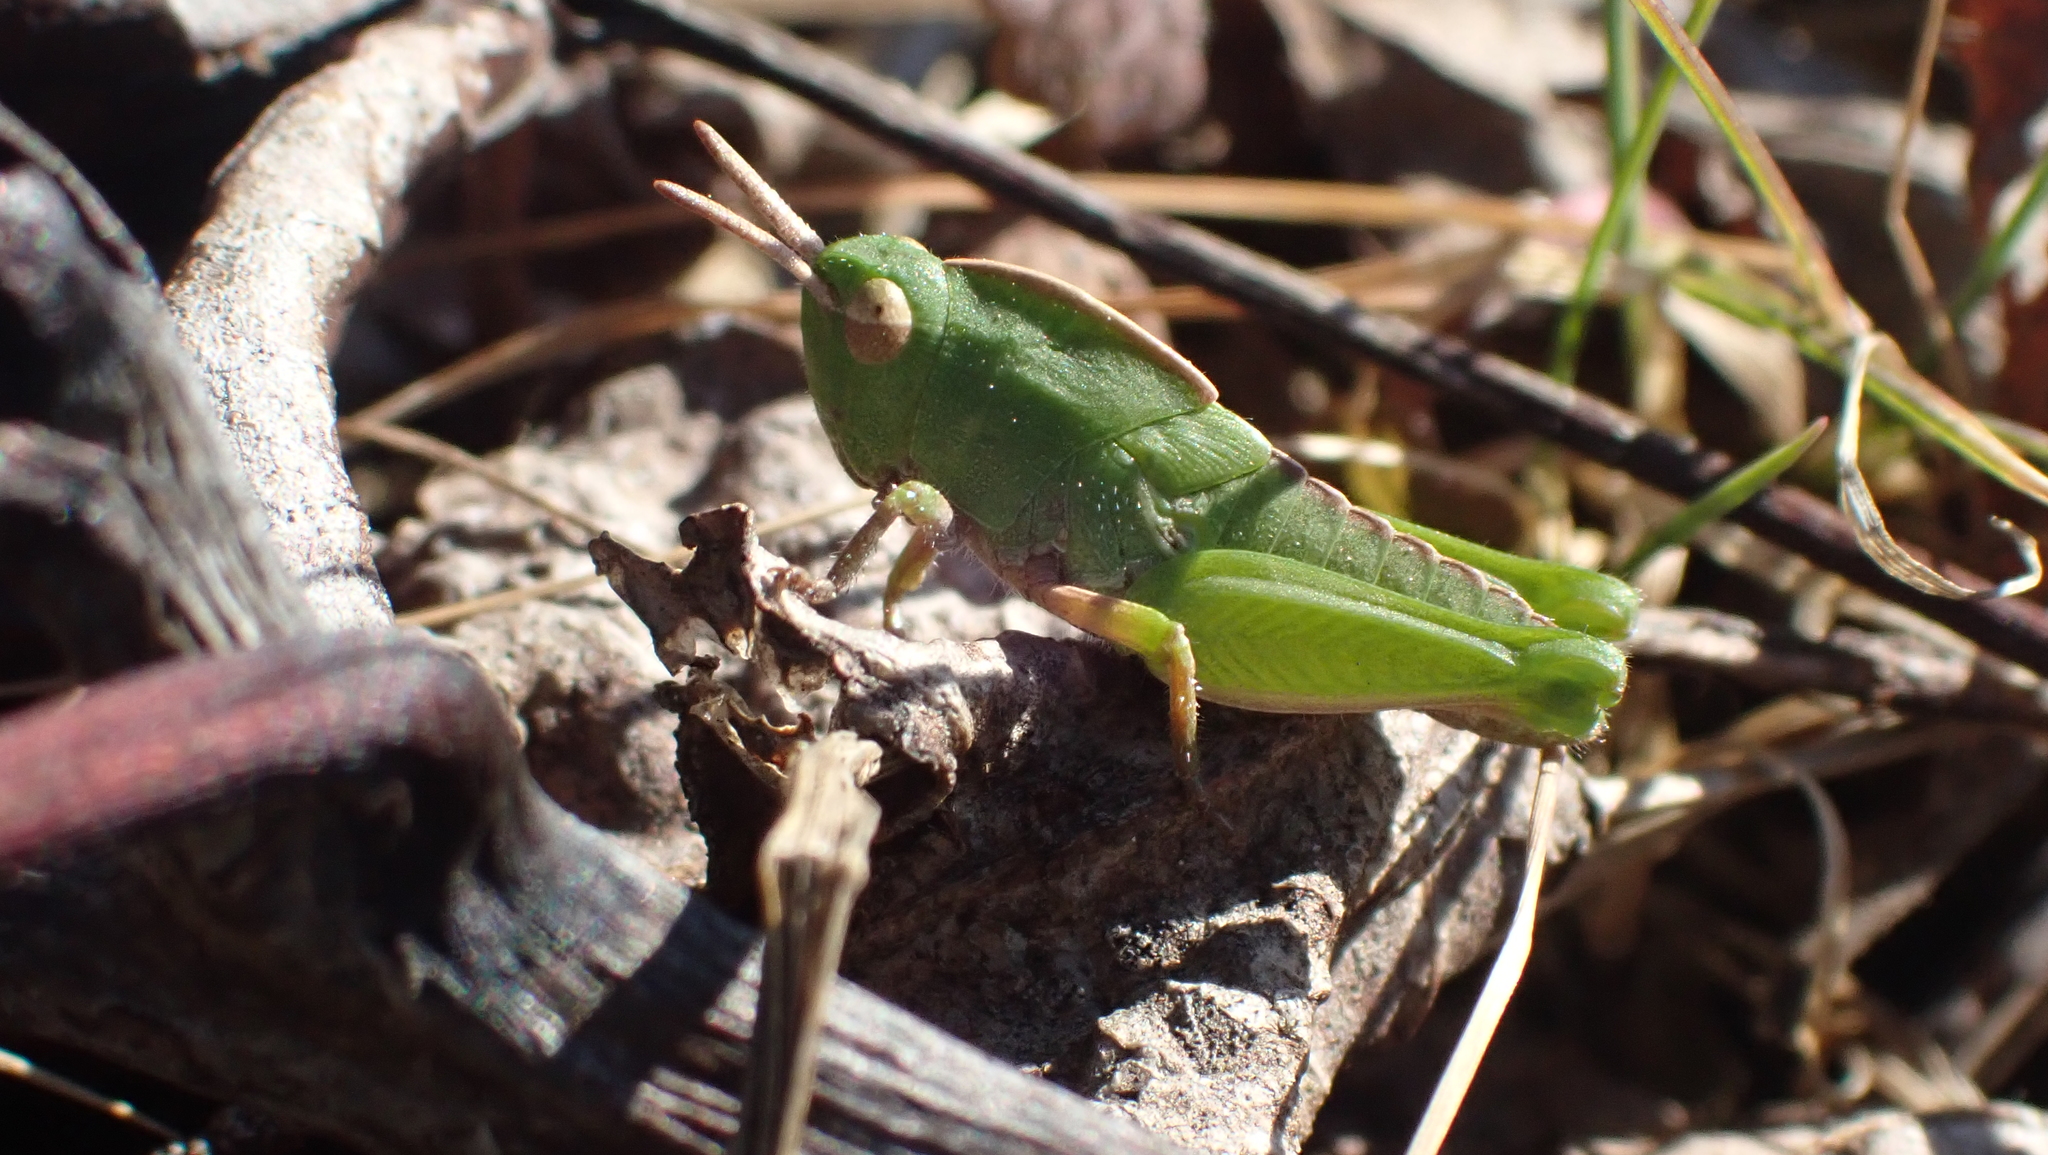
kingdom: Animalia
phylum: Arthropoda
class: Insecta
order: Orthoptera
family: Acrididae
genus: Chortophaga
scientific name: Chortophaga viridifasciata
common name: Green-striped grasshopper
